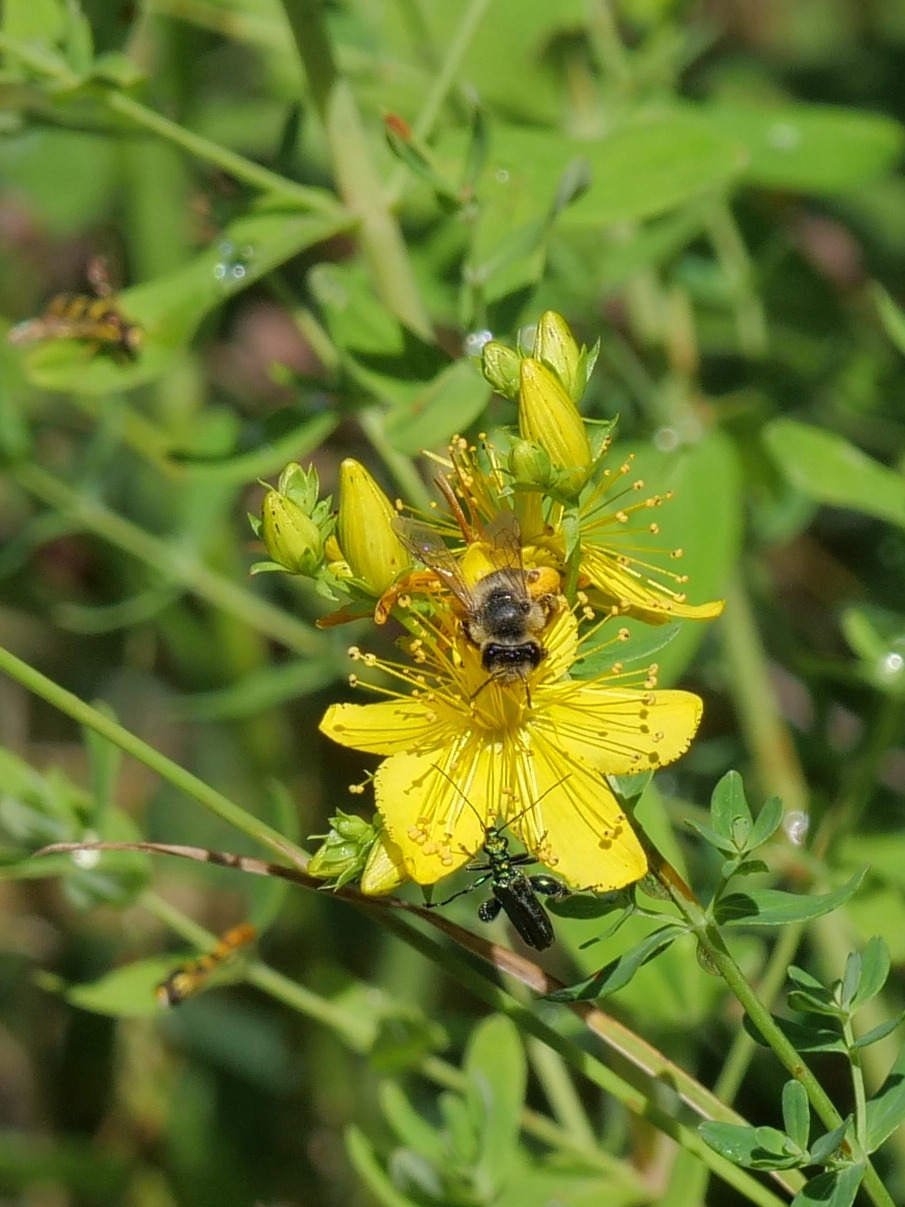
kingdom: Plantae
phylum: Tracheophyta
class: Magnoliopsida
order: Malpighiales
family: Hypericaceae
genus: Hypericum
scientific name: Hypericum perforatum
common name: Common st. johnswort
